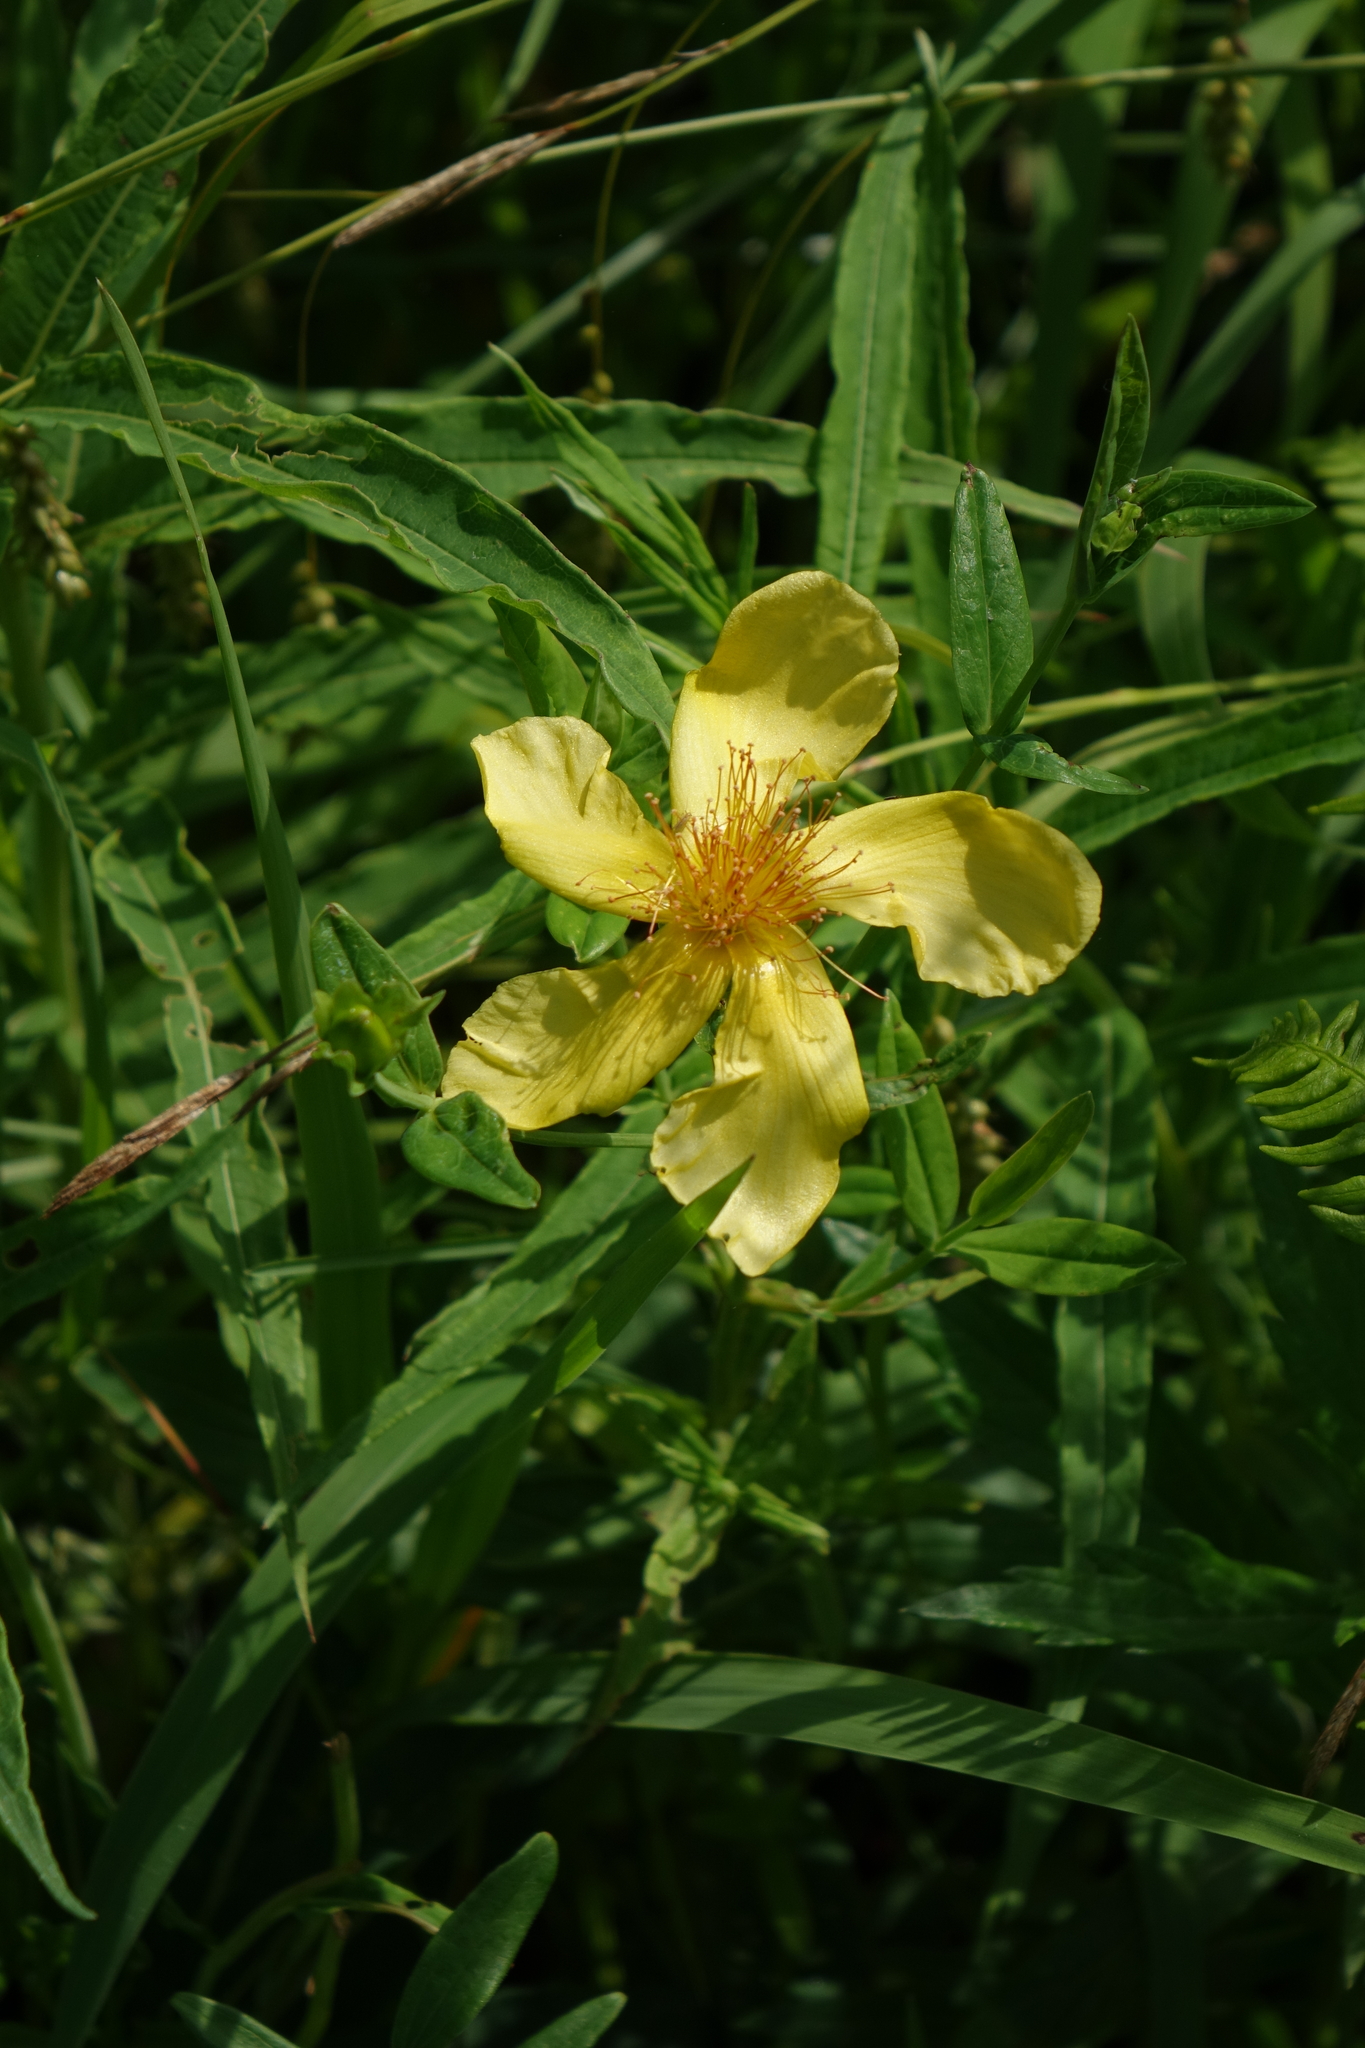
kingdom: Plantae
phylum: Tracheophyta
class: Magnoliopsida
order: Malpighiales
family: Hypericaceae
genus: Hypericum
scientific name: Hypericum ascyron
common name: Giant st. john's-wort
